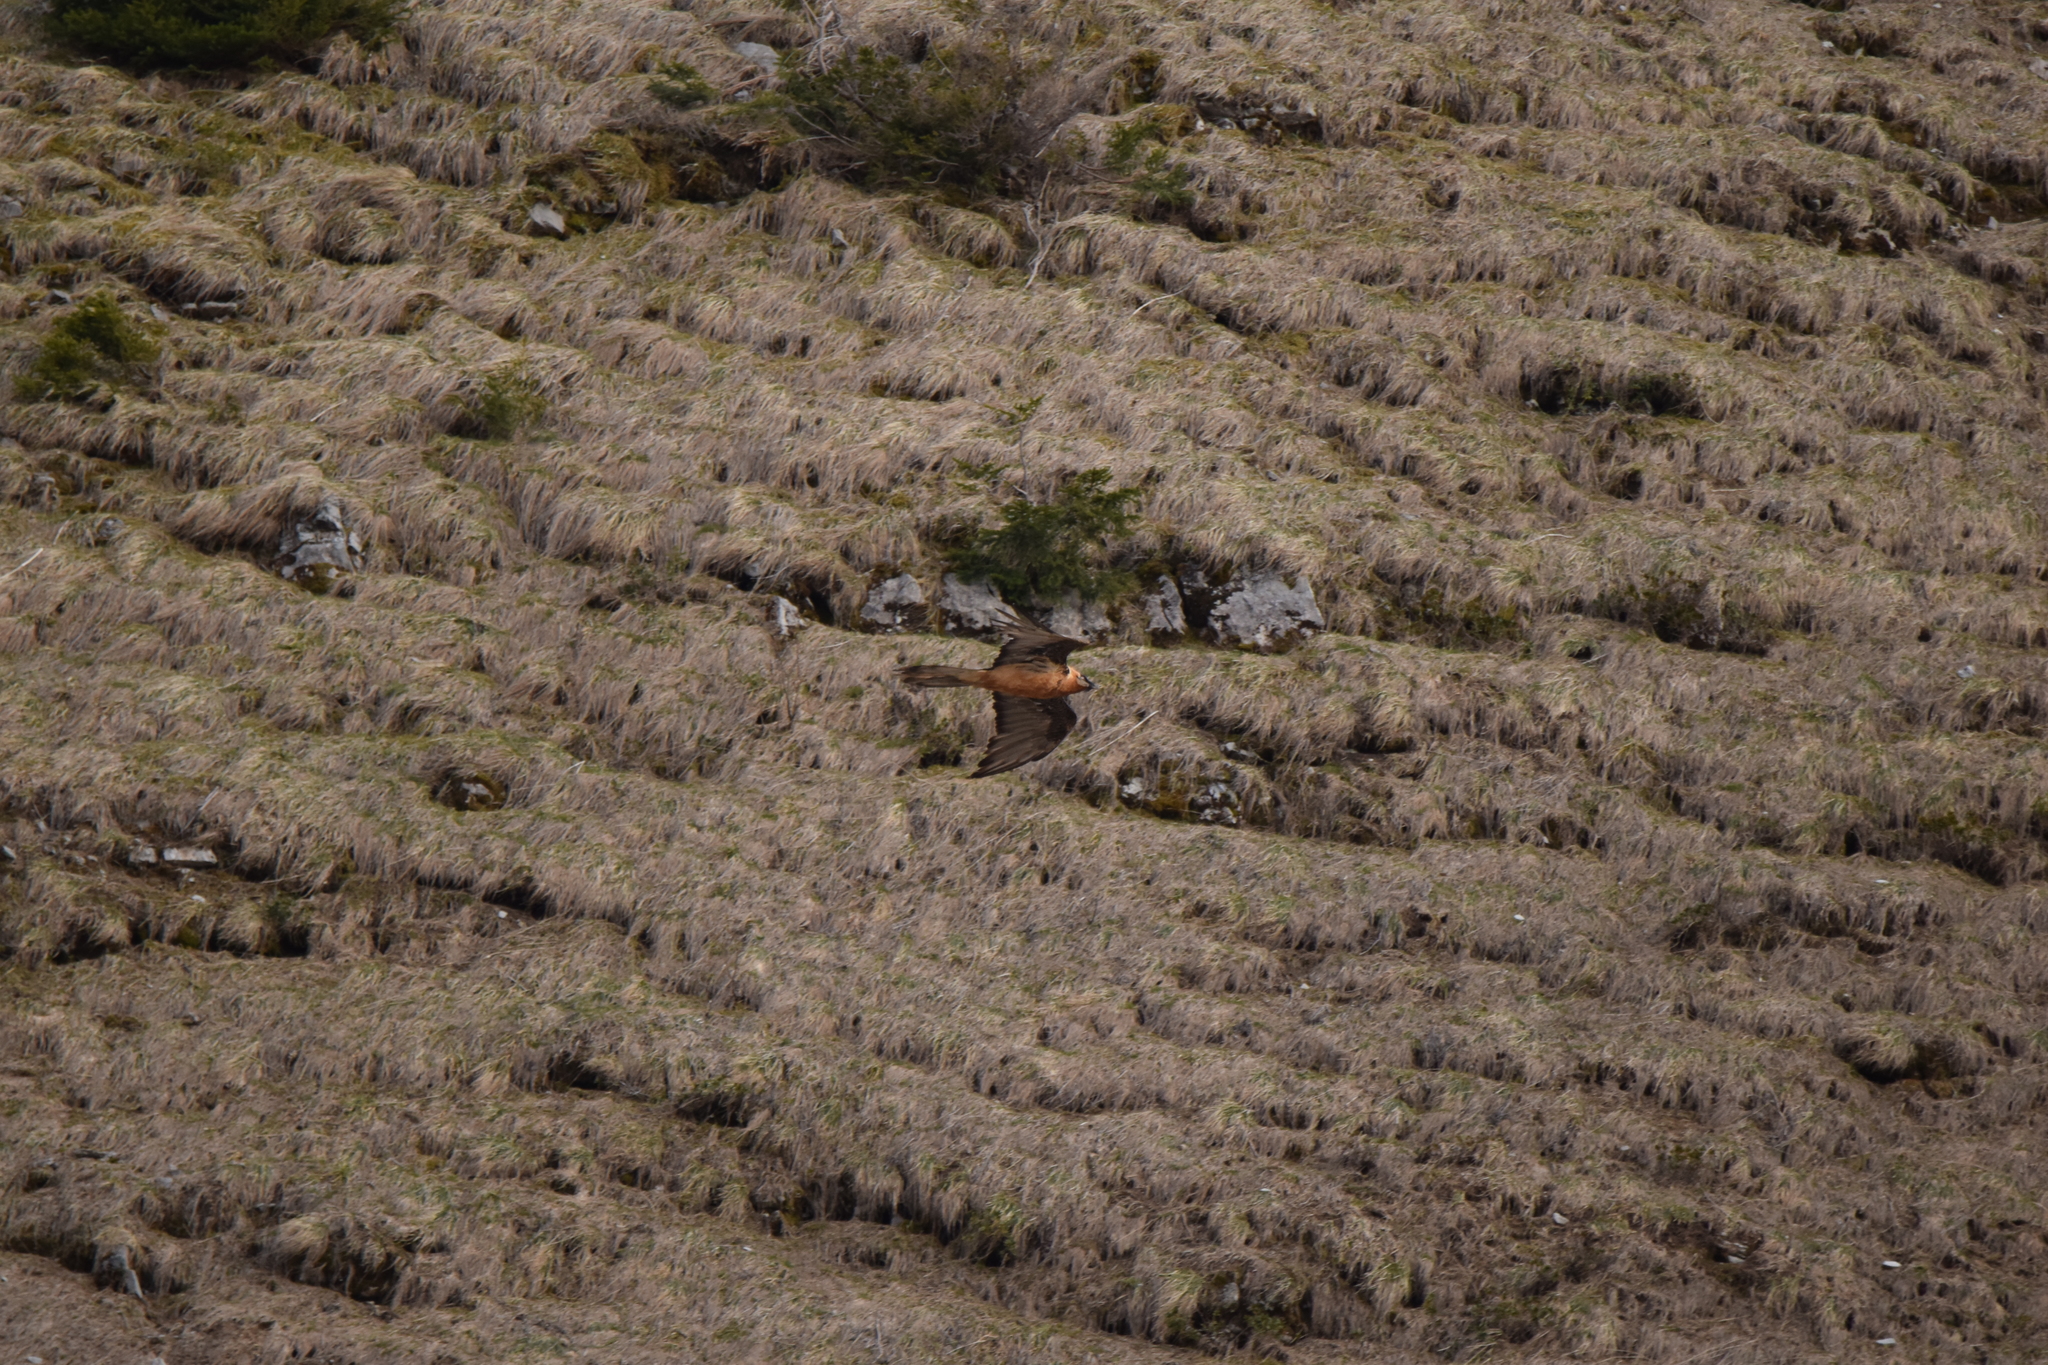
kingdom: Animalia
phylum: Chordata
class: Aves
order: Accipitriformes
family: Accipitridae
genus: Gypaetus
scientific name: Gypaetus barbatus
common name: Bearded vulture
